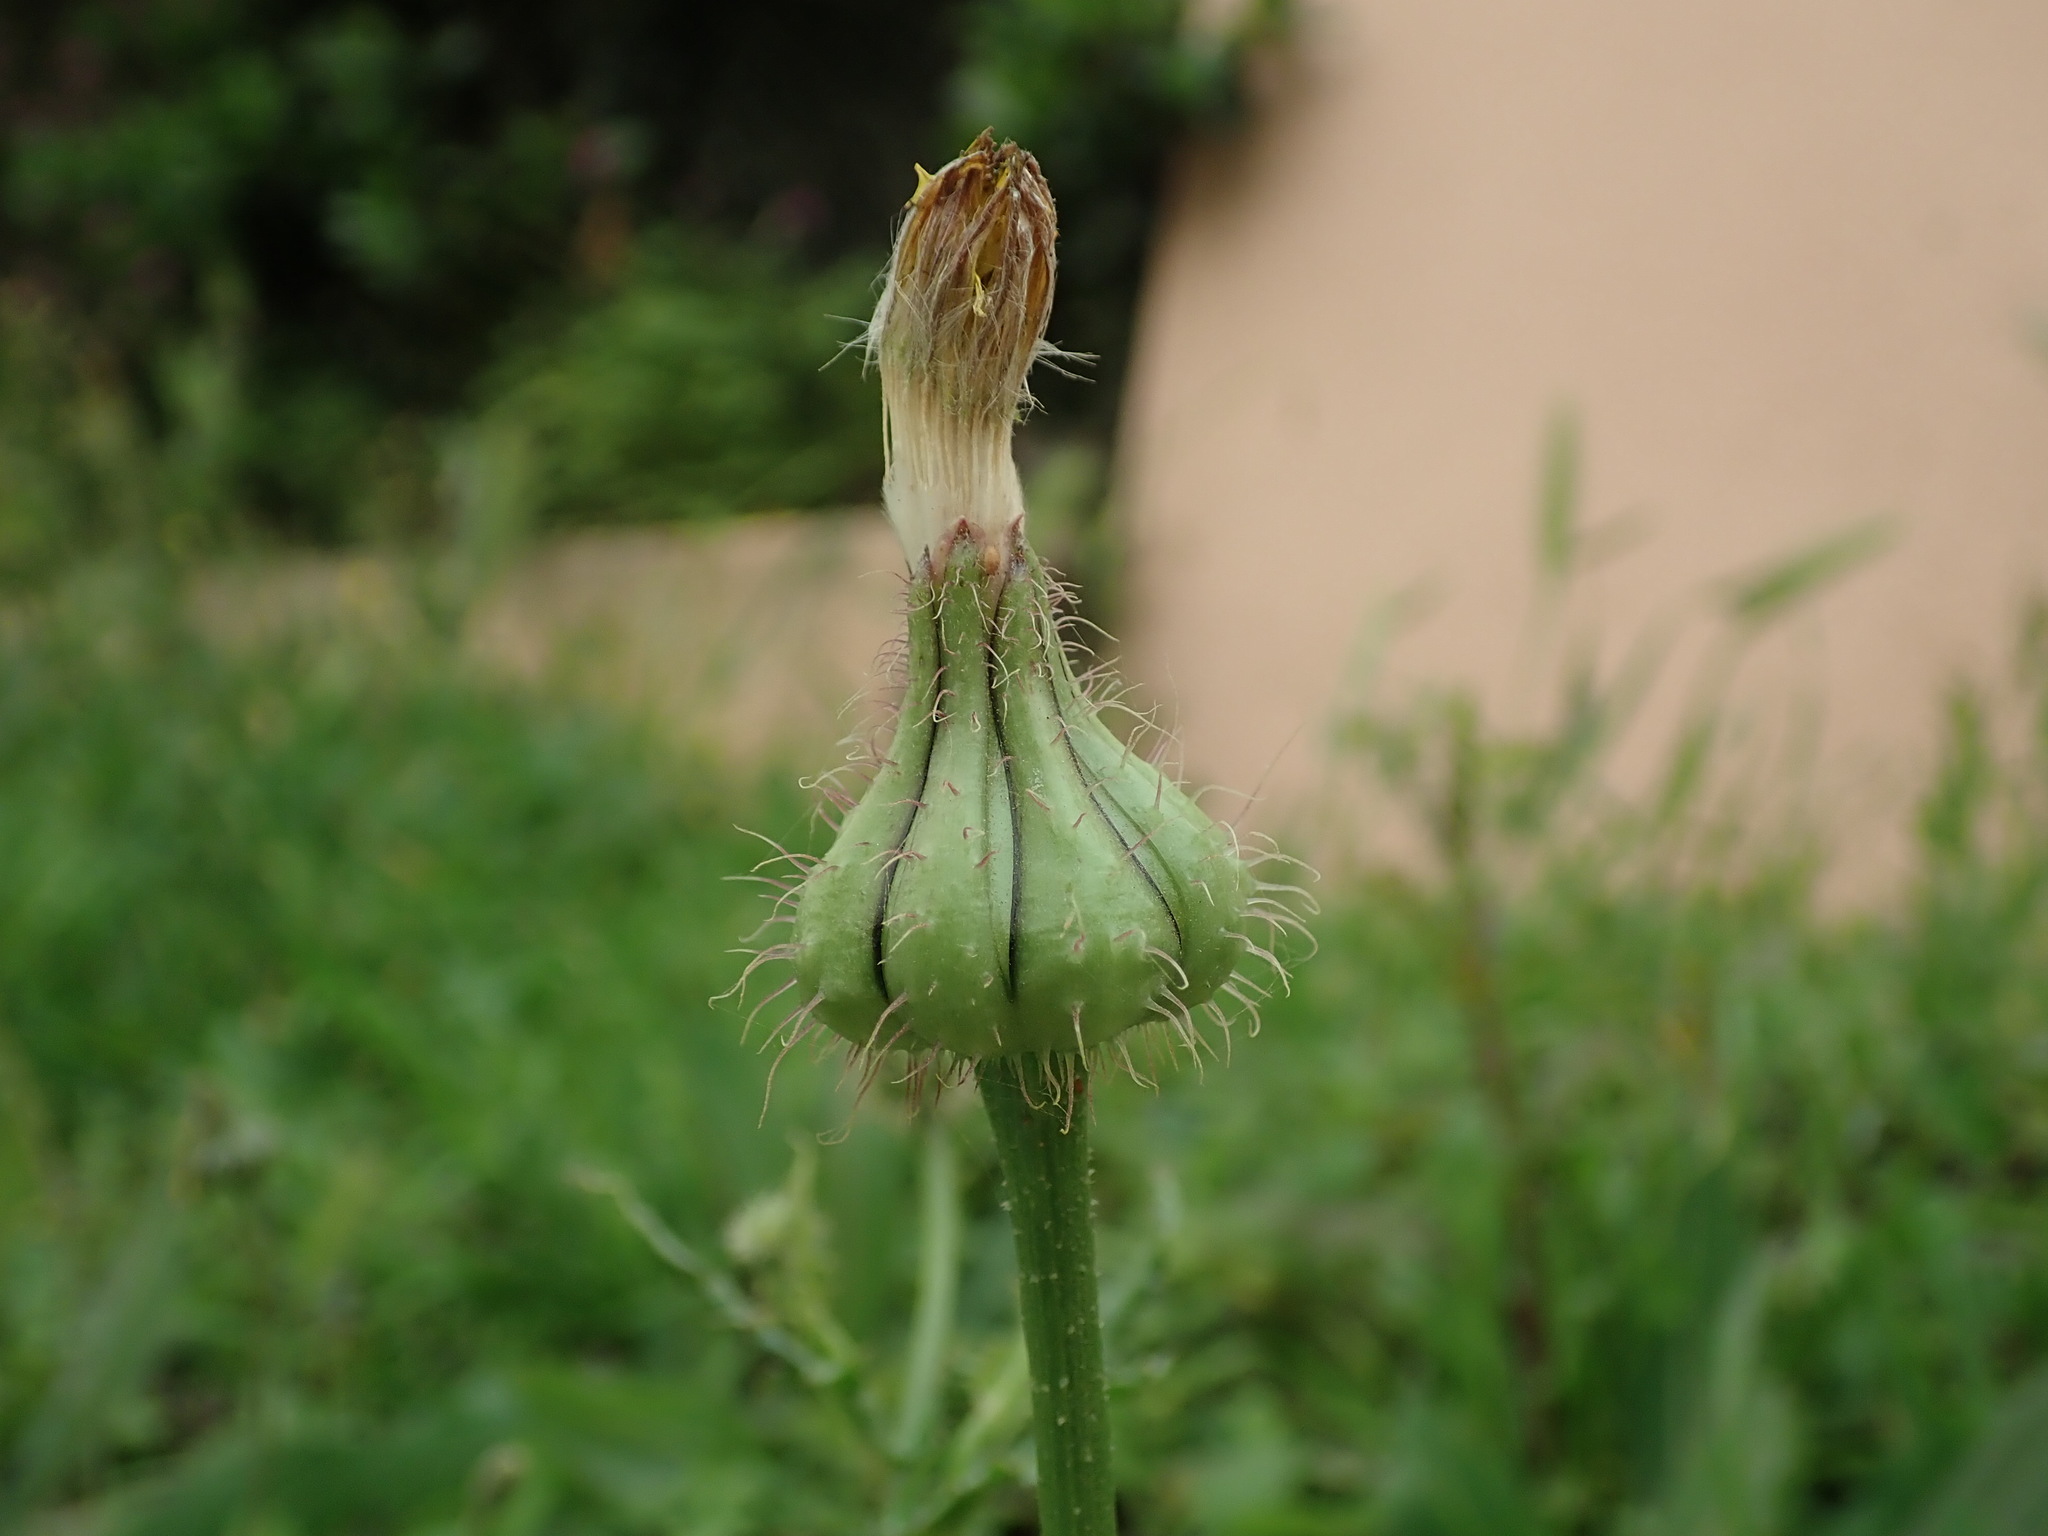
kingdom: Plantae
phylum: Tracheophyta
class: Magnoliopsida
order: Asterales
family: Asteraceae
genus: Urospermum
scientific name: Urospermum picroides
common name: False hawkbit
